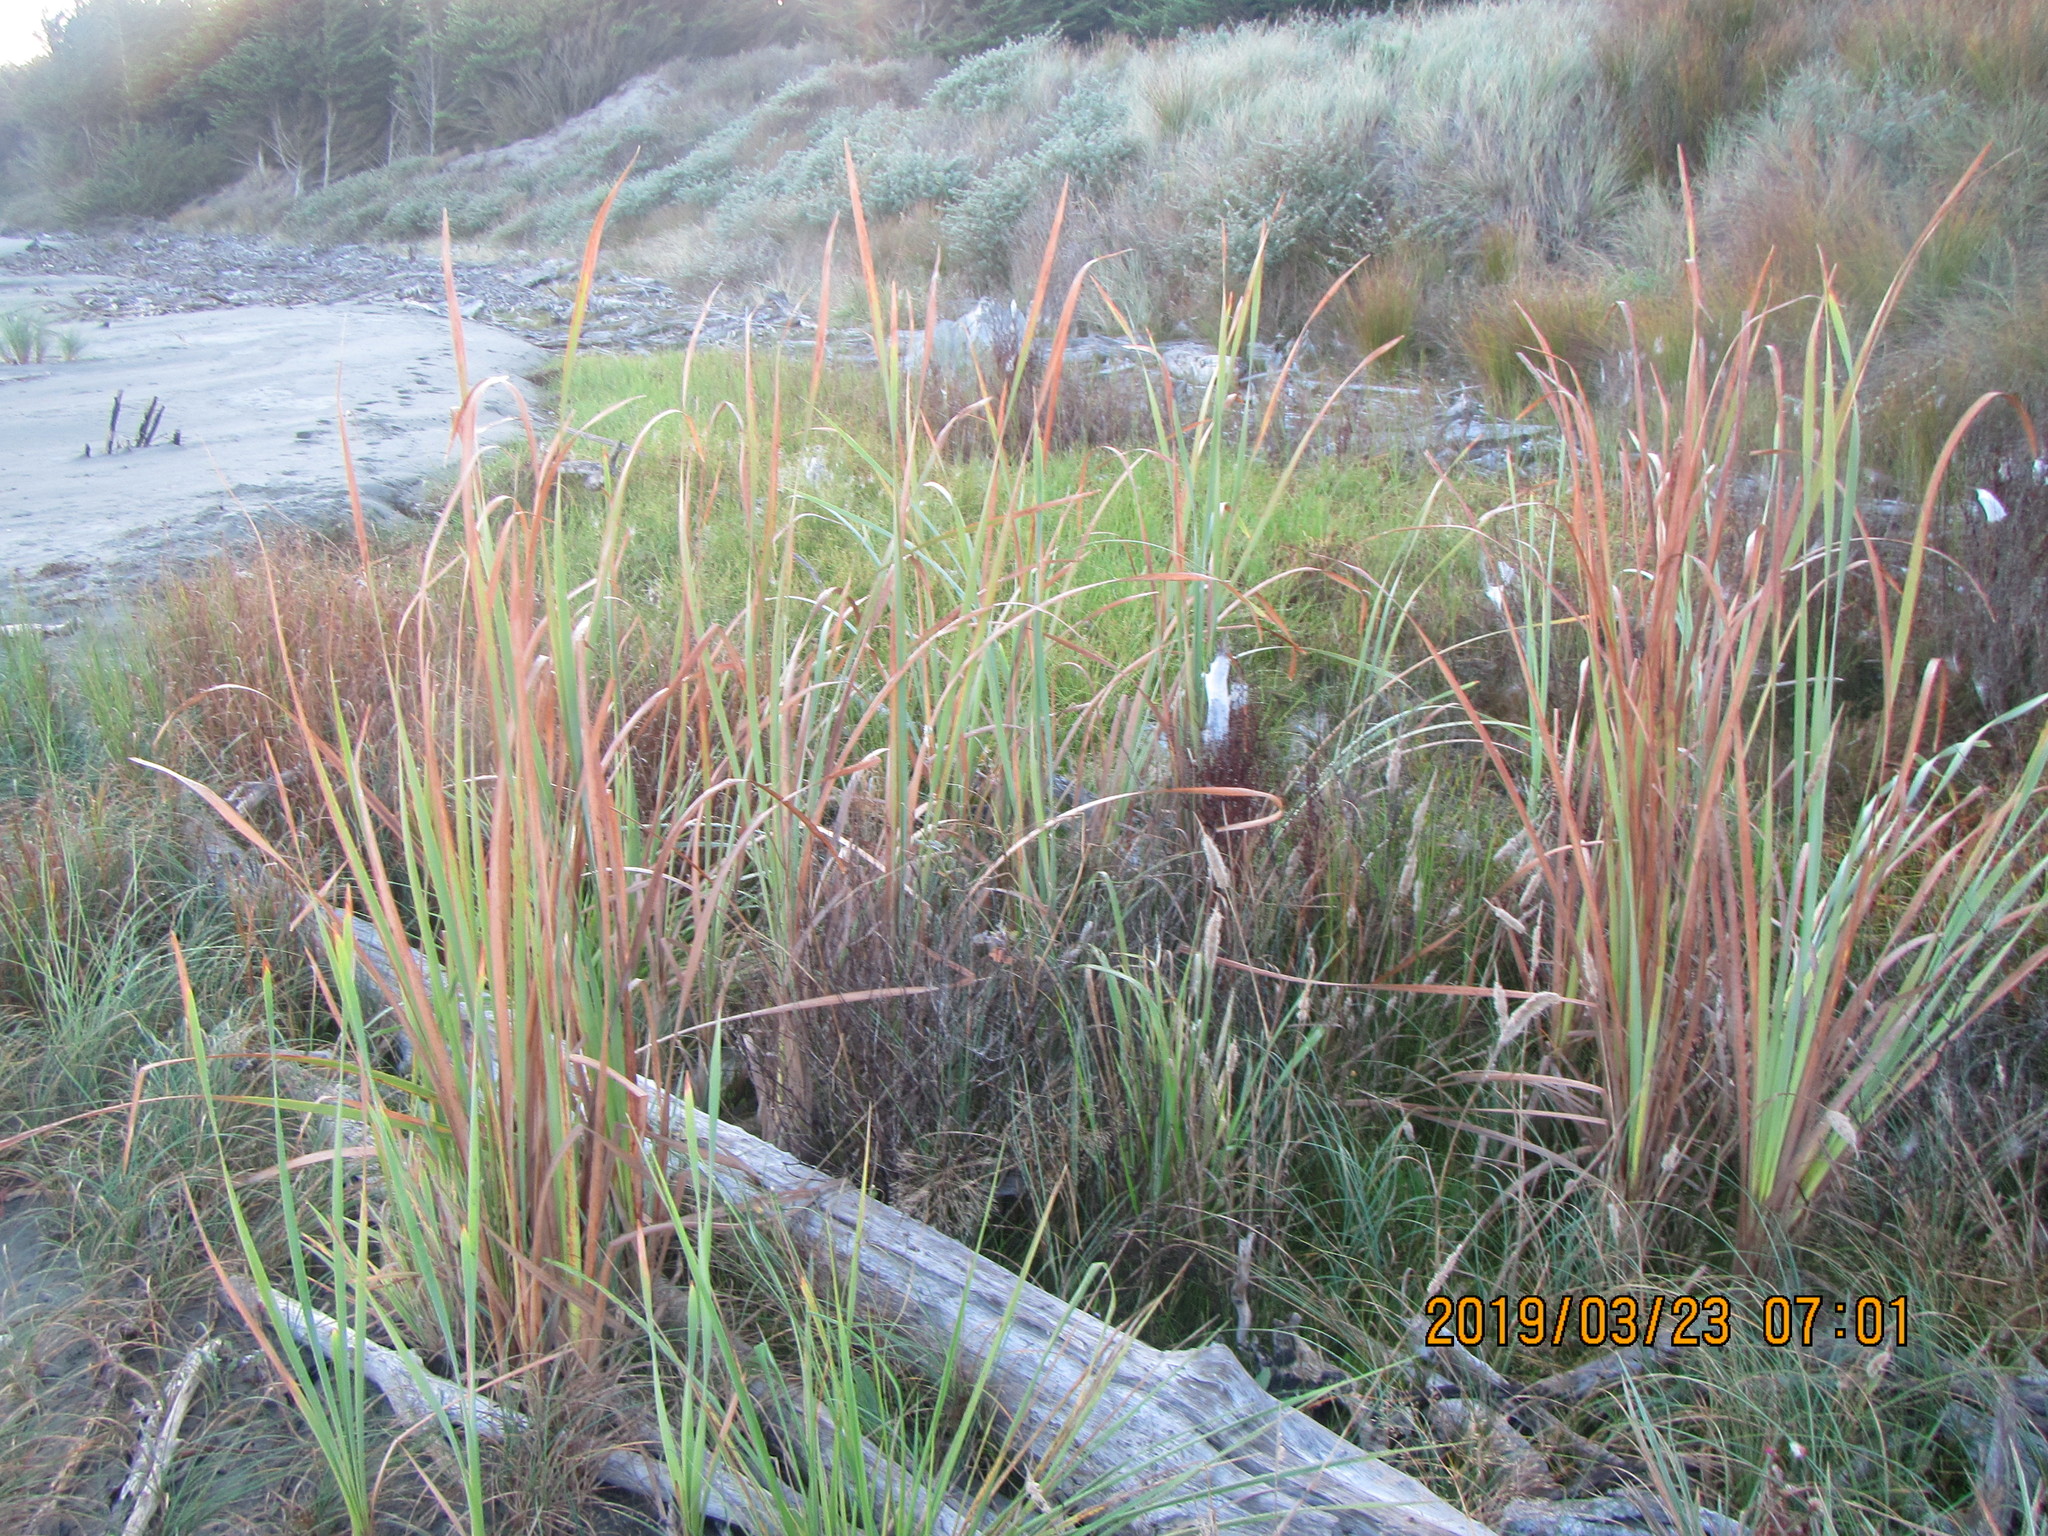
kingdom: Plantae
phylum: Tracheophyta
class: Liliopsida
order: Poales
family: Typhaceae
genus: Typha
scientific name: Typha orientalis
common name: Bullrush
